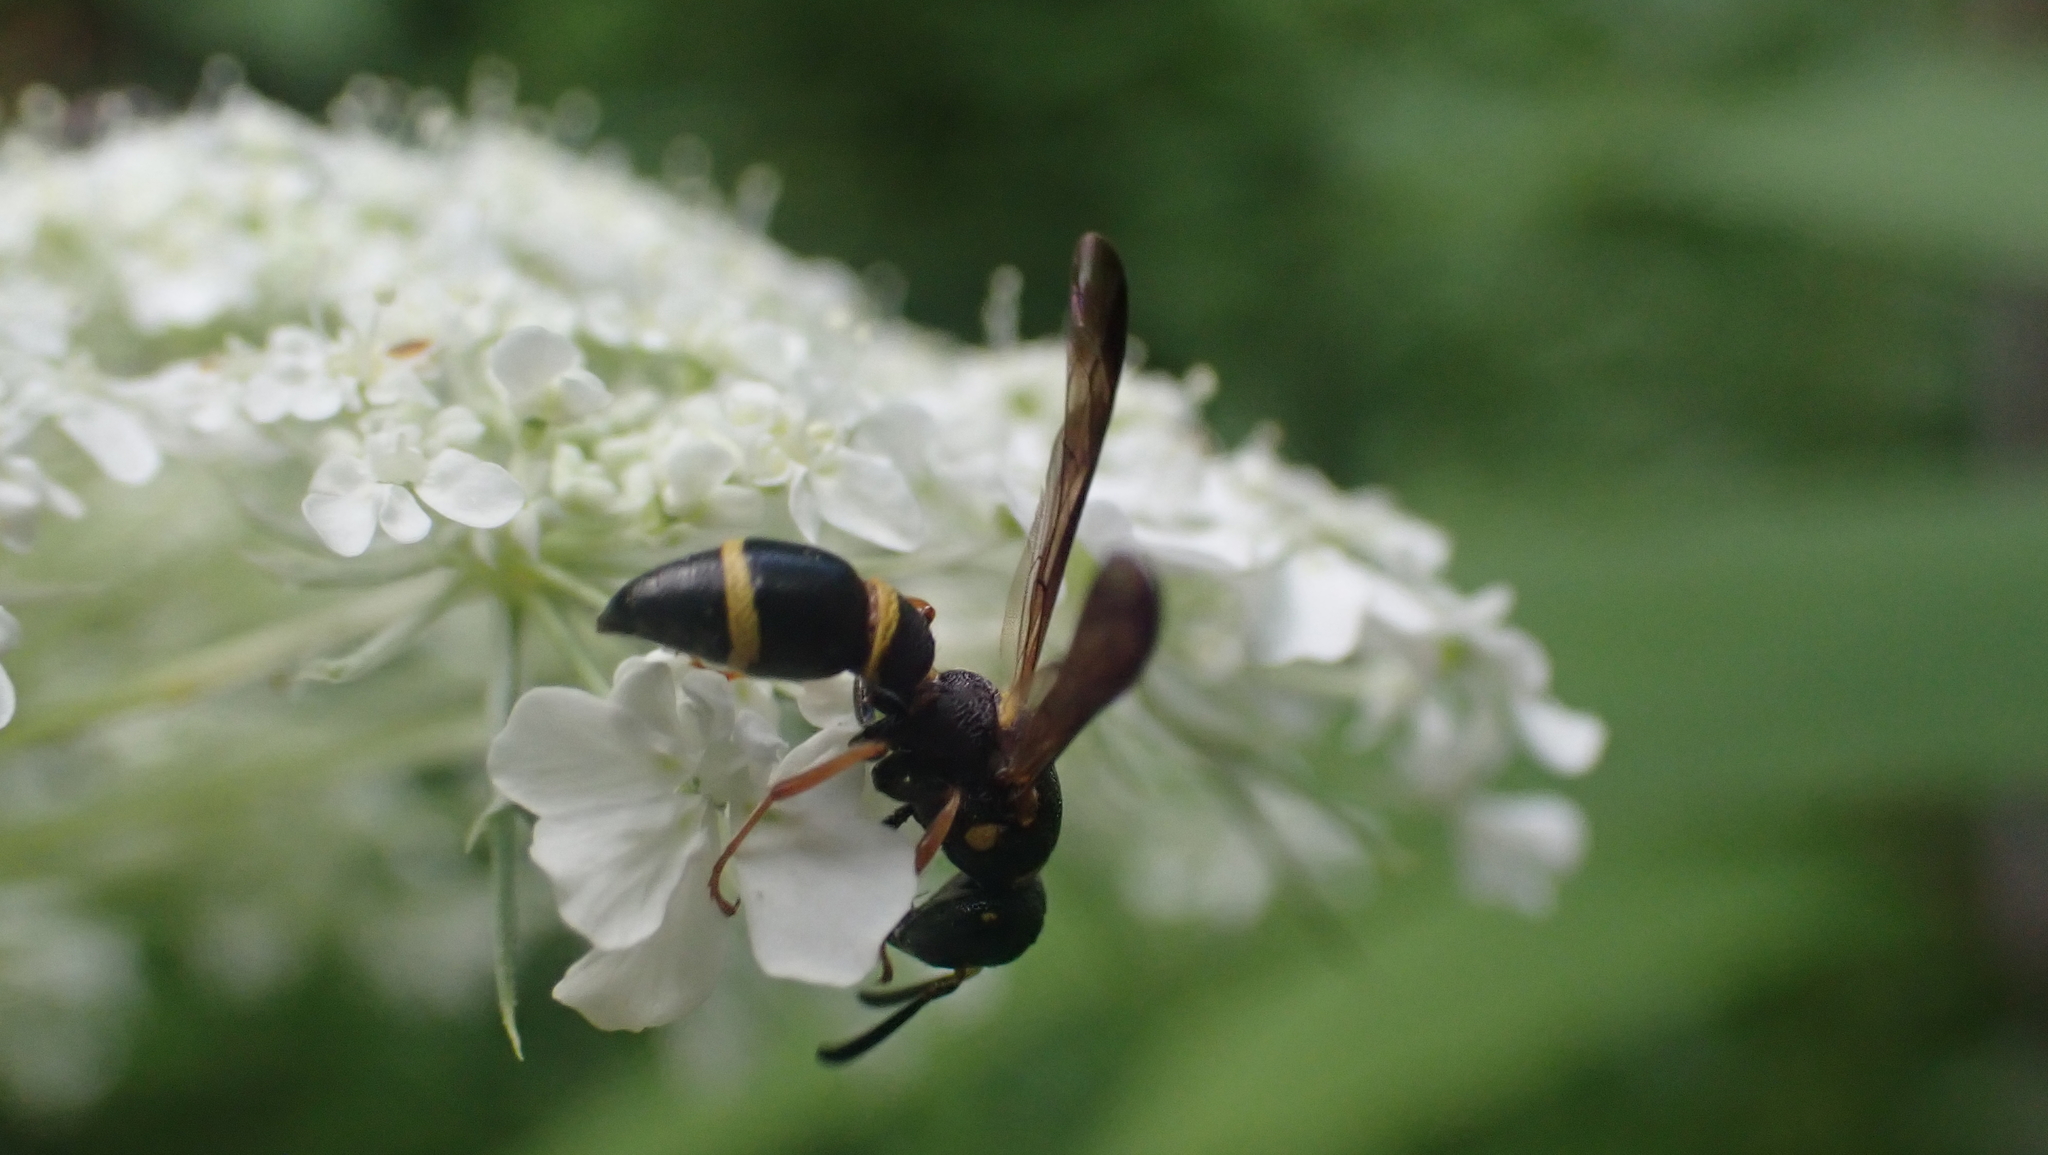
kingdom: Animalia
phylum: Arthropoda
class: Insecta
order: Hymenoptera
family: Eumenidae
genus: Parancistrocerus
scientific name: Parancistrocerus perennis
